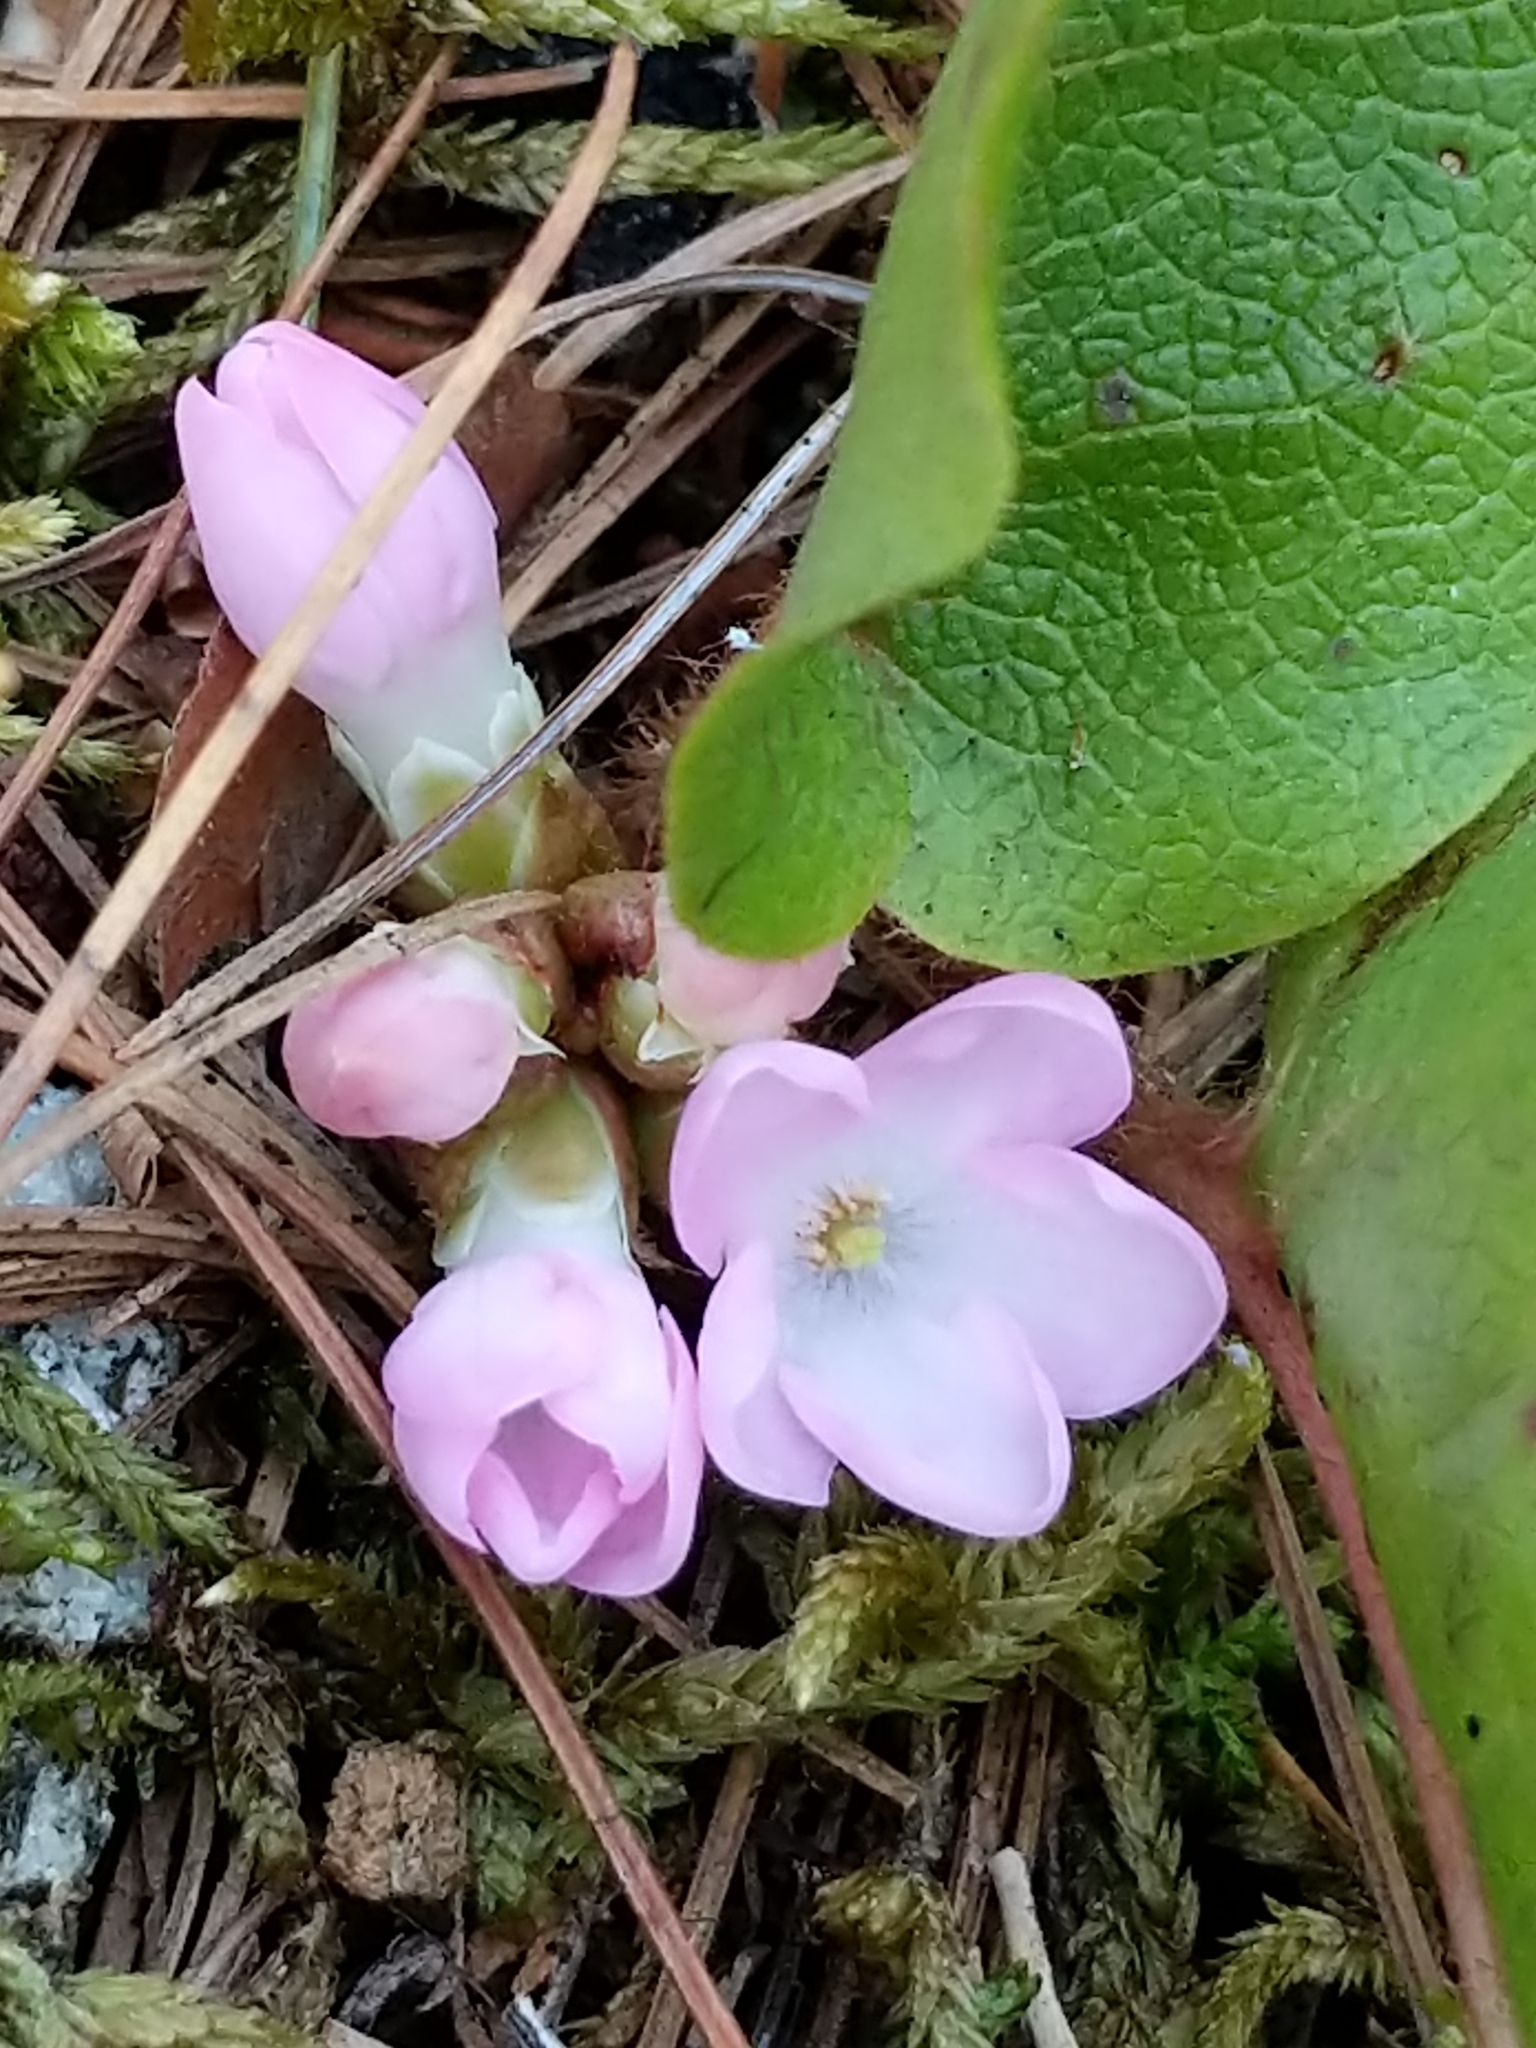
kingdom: Plantae
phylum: Tracheophyta
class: Magnoliopsida
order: Ericales
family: Ericaceae
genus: Epigaea
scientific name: Epigaea repens
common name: Gravelroot
